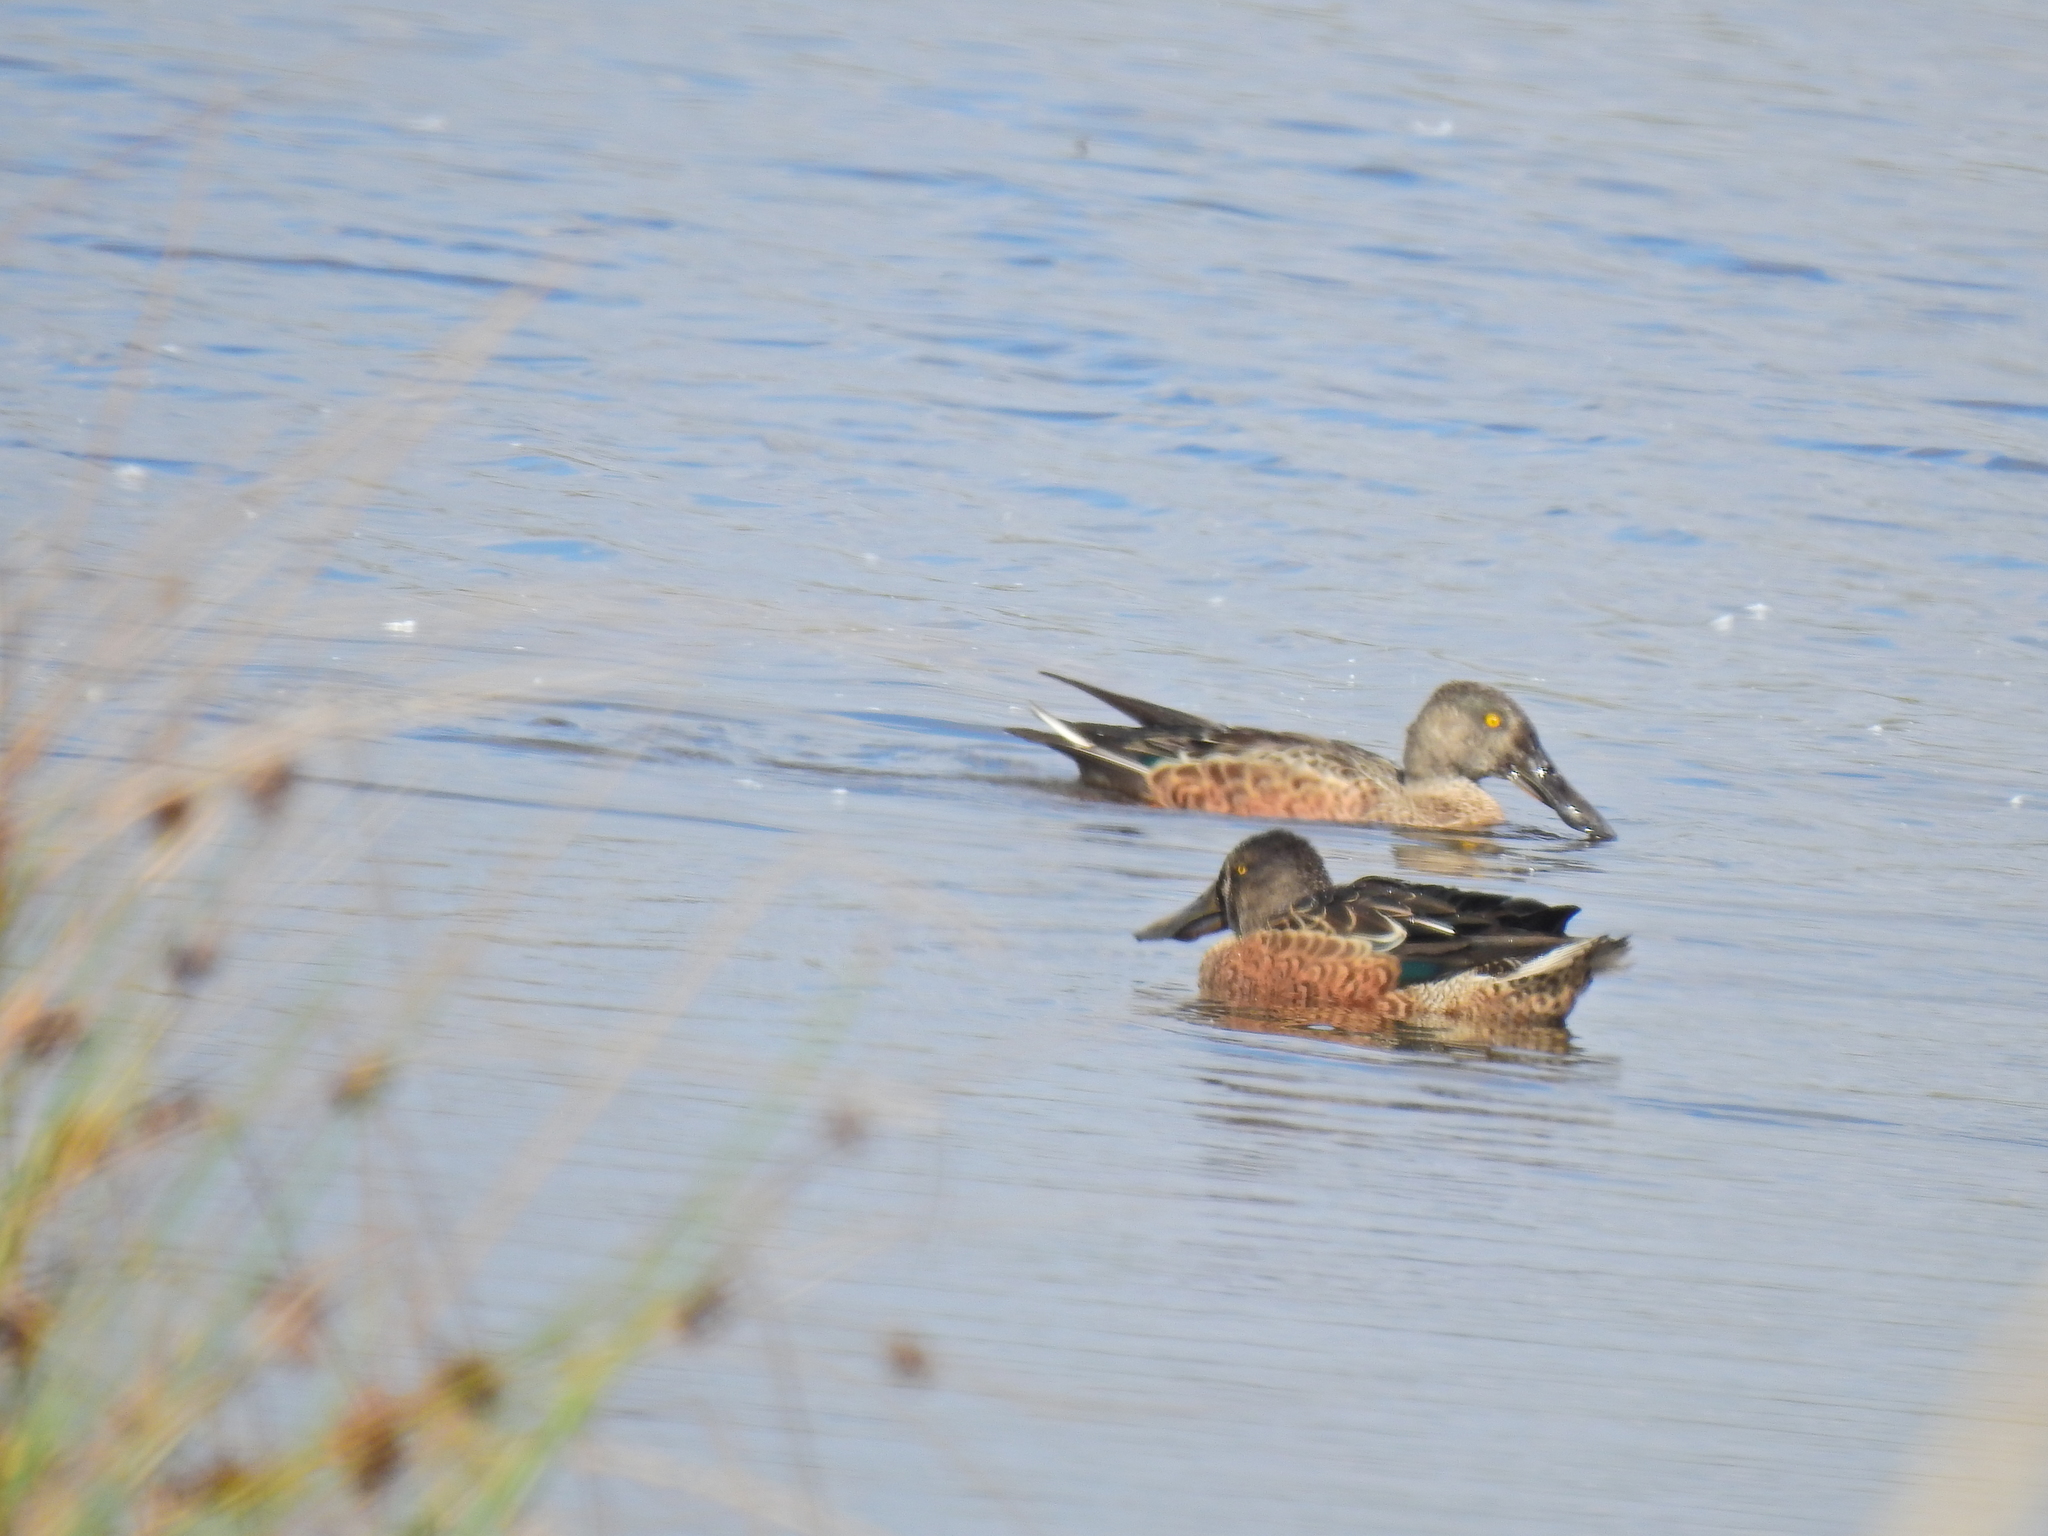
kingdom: Animalia
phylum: Chordata
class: Aves
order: Anseriformes
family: Anatidae
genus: Spatula
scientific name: Spatula clypeata
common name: Northern shoveler
